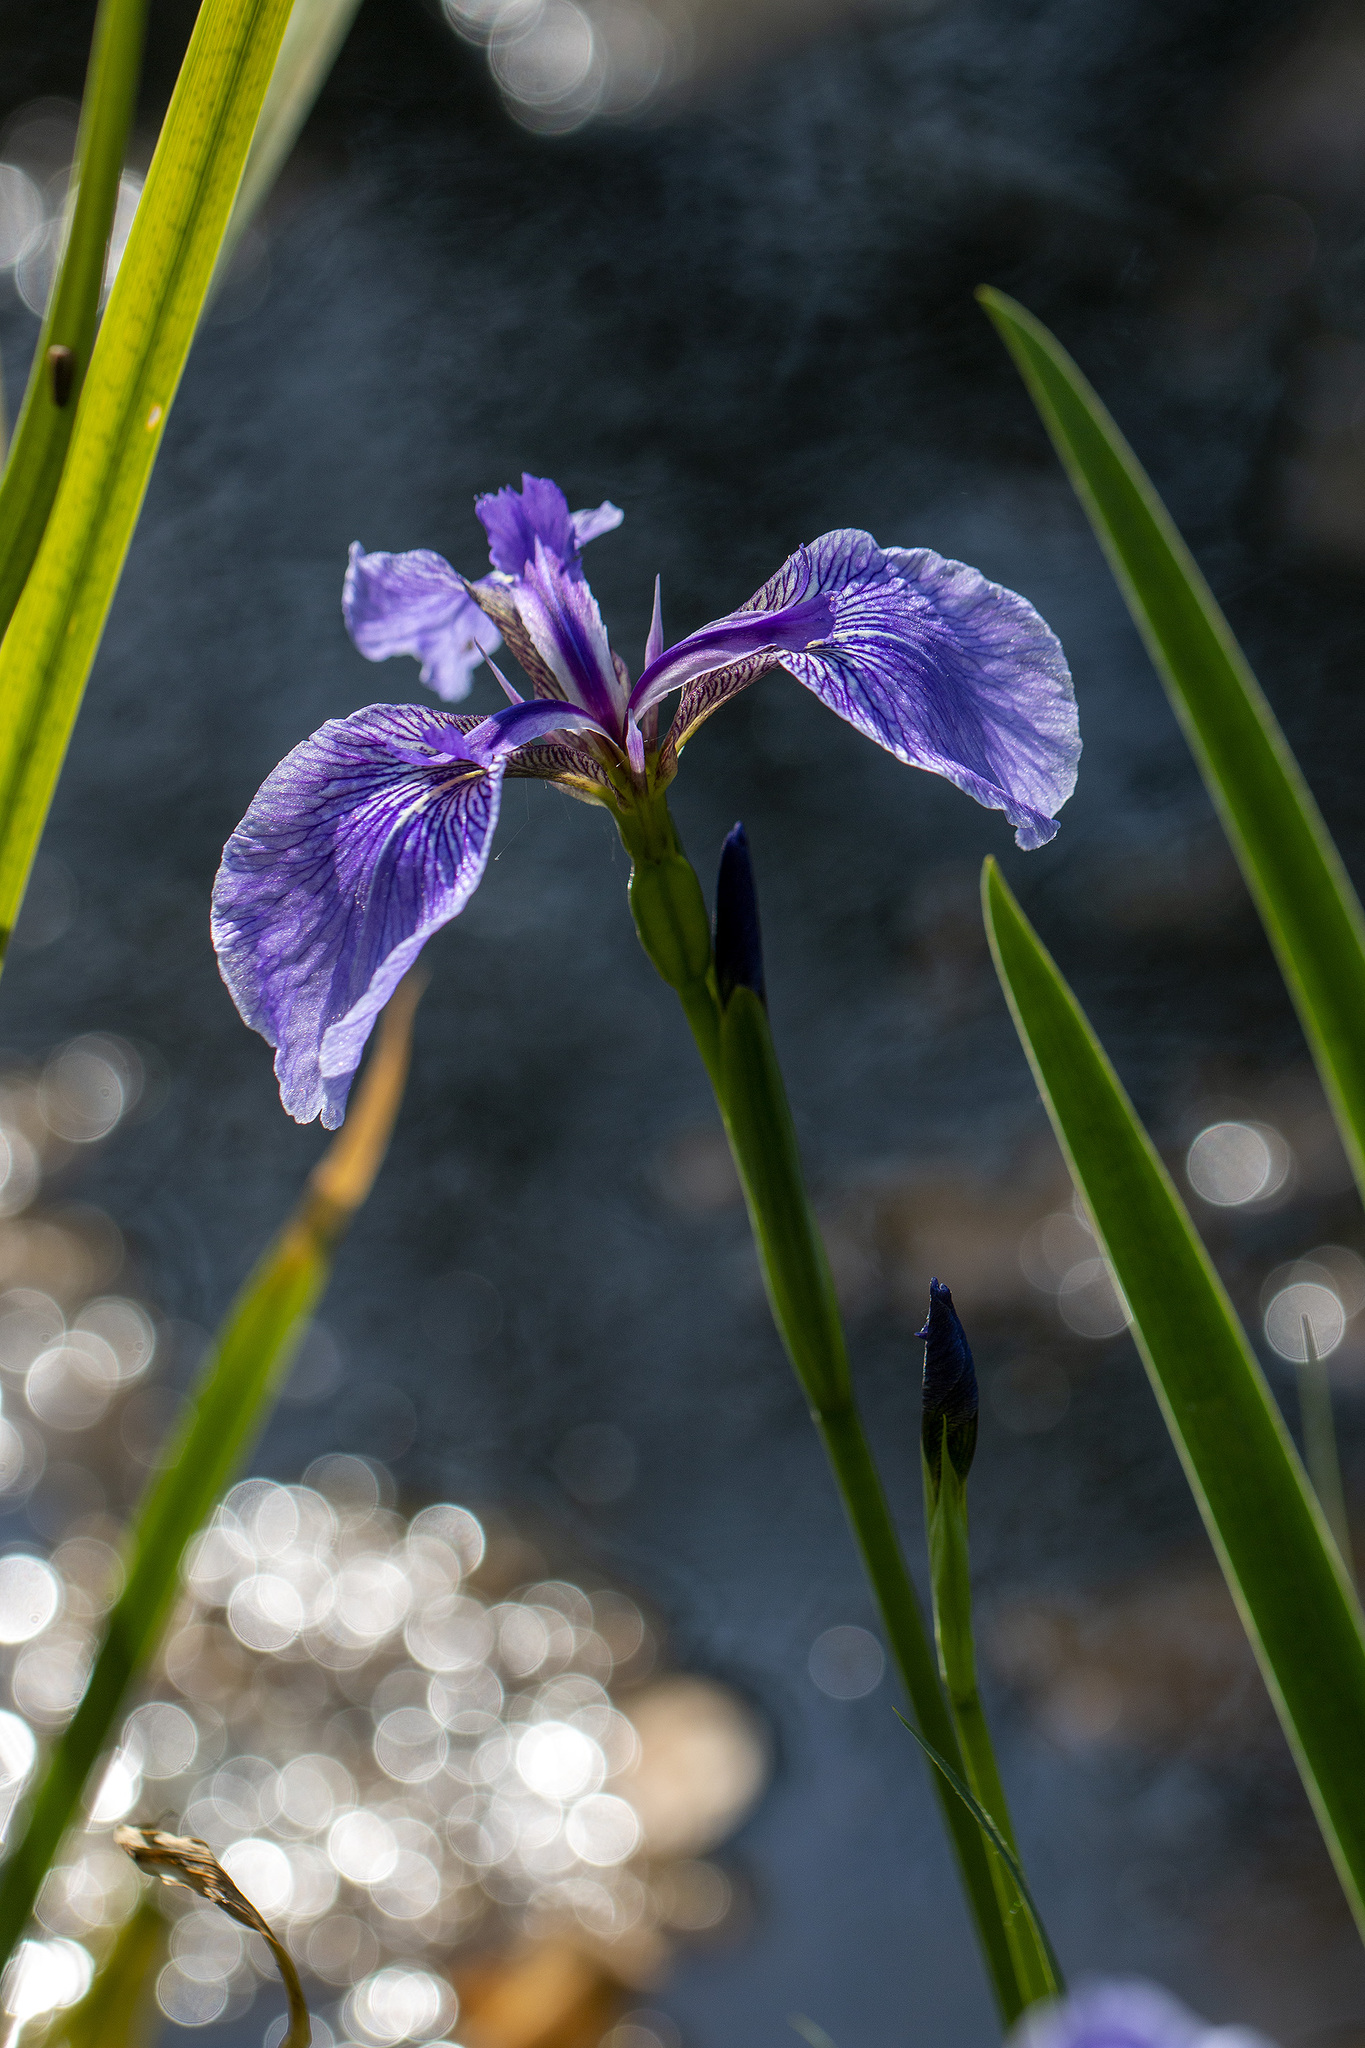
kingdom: Plantae
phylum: Tracheophyta
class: Liliopsida
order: Asparagales
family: Iridaceae
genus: Iris
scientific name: Iris hookeri
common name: Canada beach-head iris
